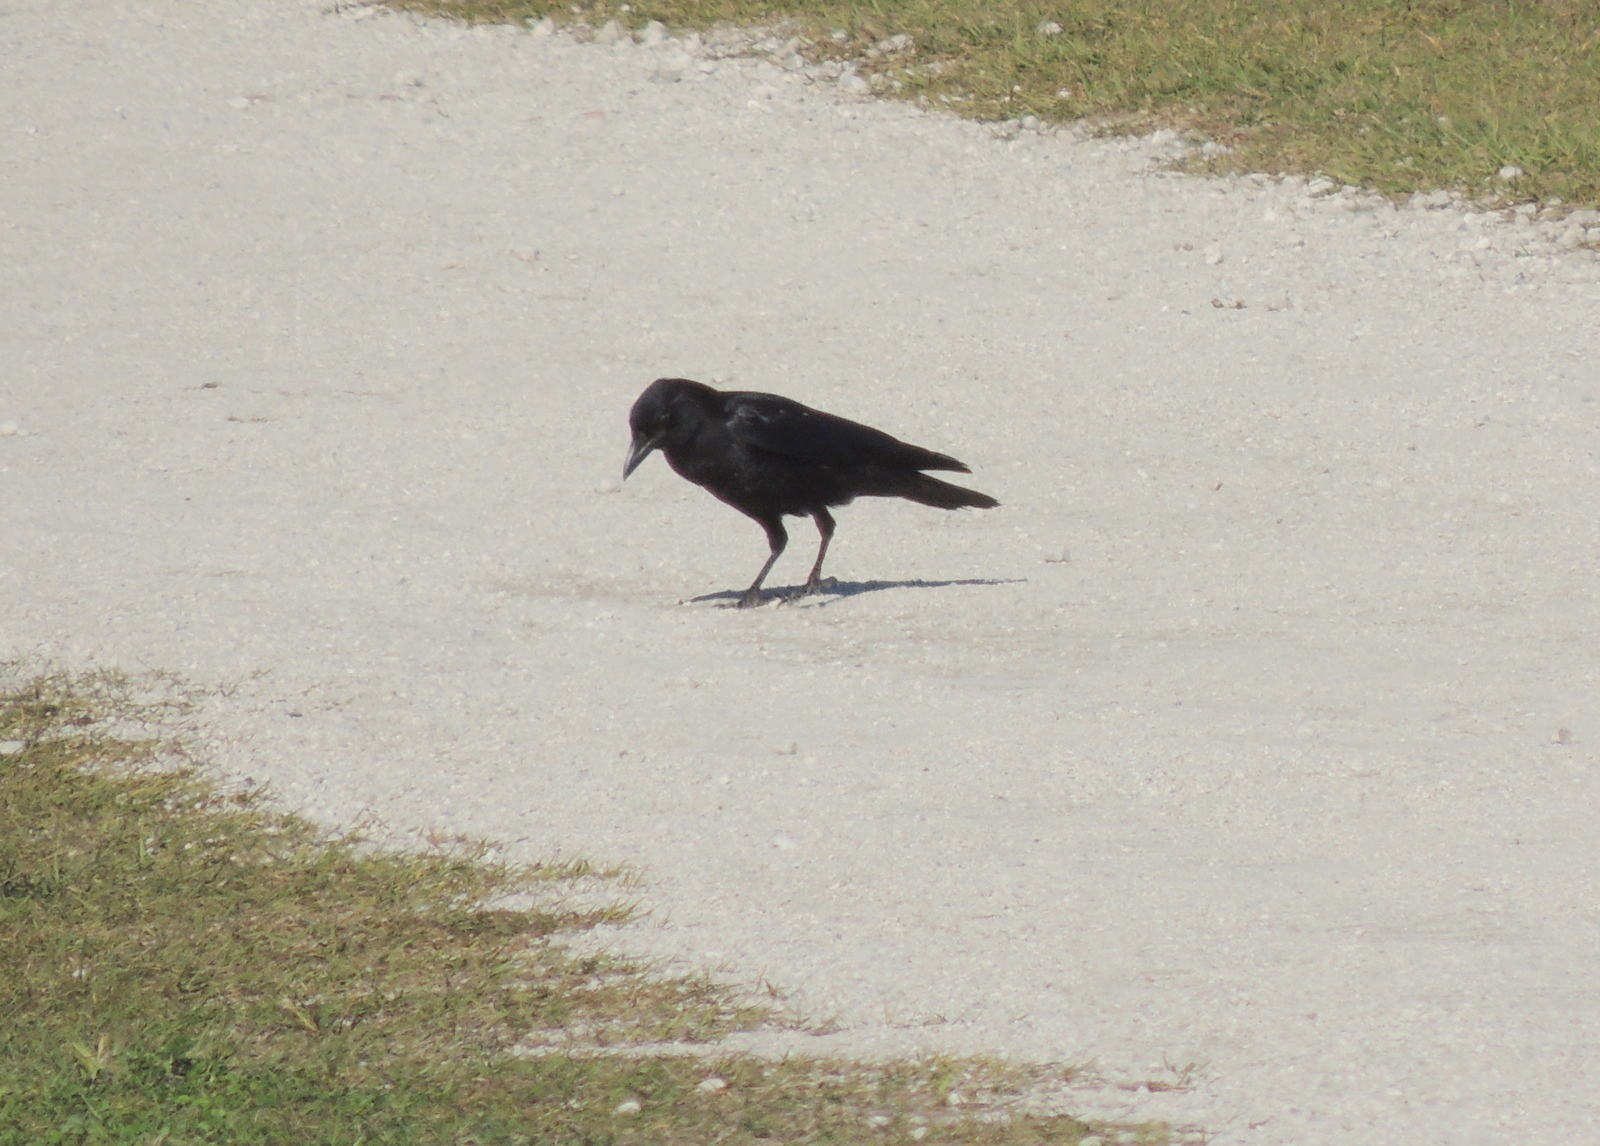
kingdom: Animalia
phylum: Chordata
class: Aves
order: Passeriformes
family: Corvidae
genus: Corvus
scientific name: Corvus ossifragus
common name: Fish crow
